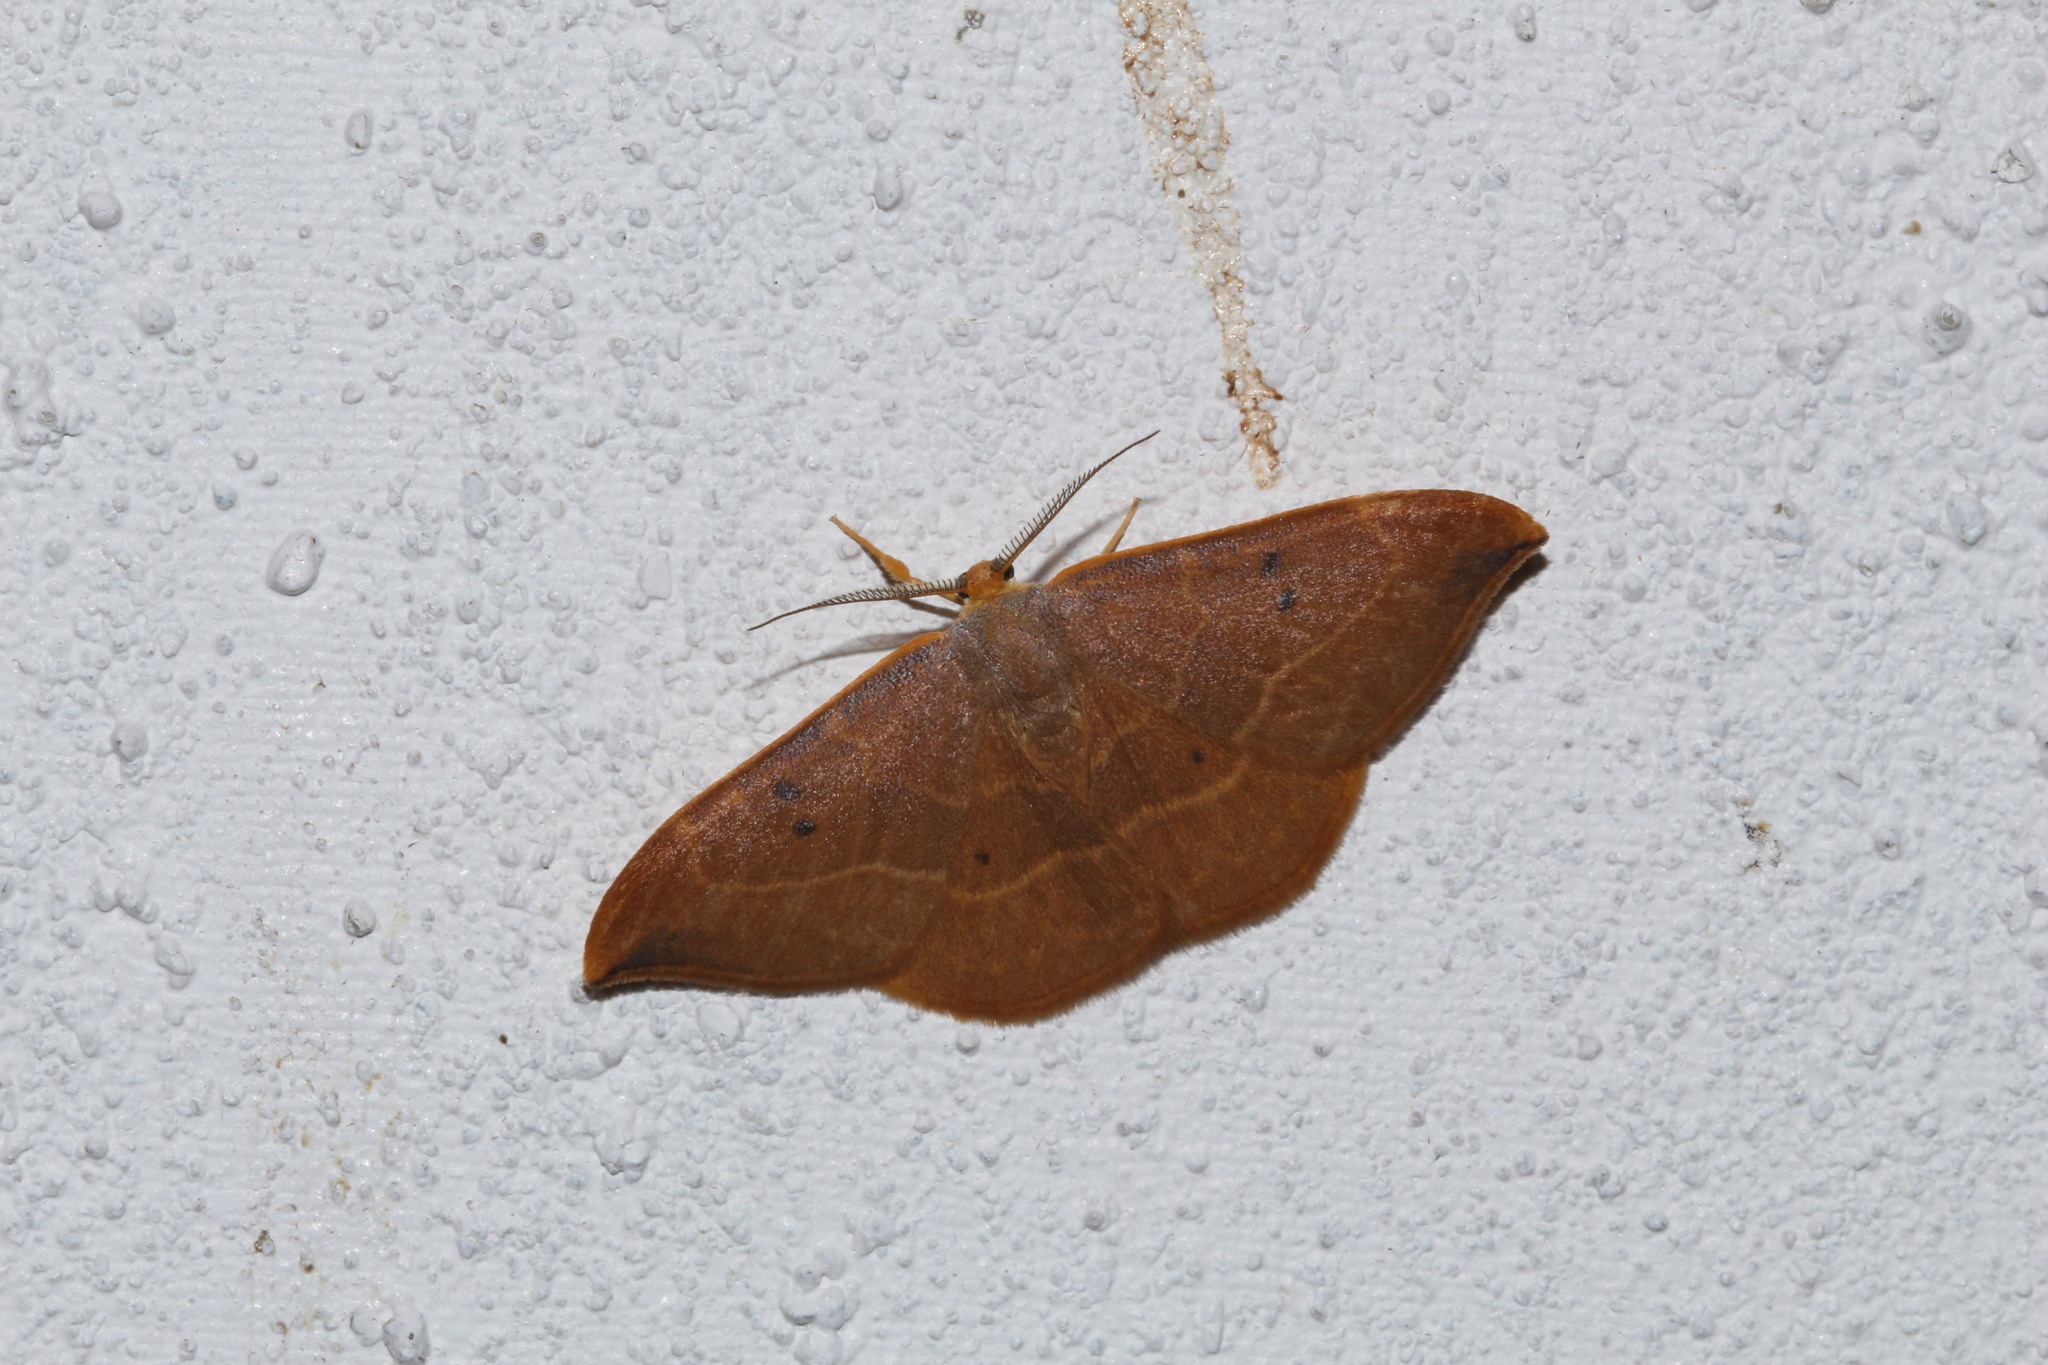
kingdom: Animalia
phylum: Arthropoda
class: Insecta
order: Lepidoptera
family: Drepanidae
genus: Watsonalla
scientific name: Watsonalla binaria
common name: Oak hook-tip
